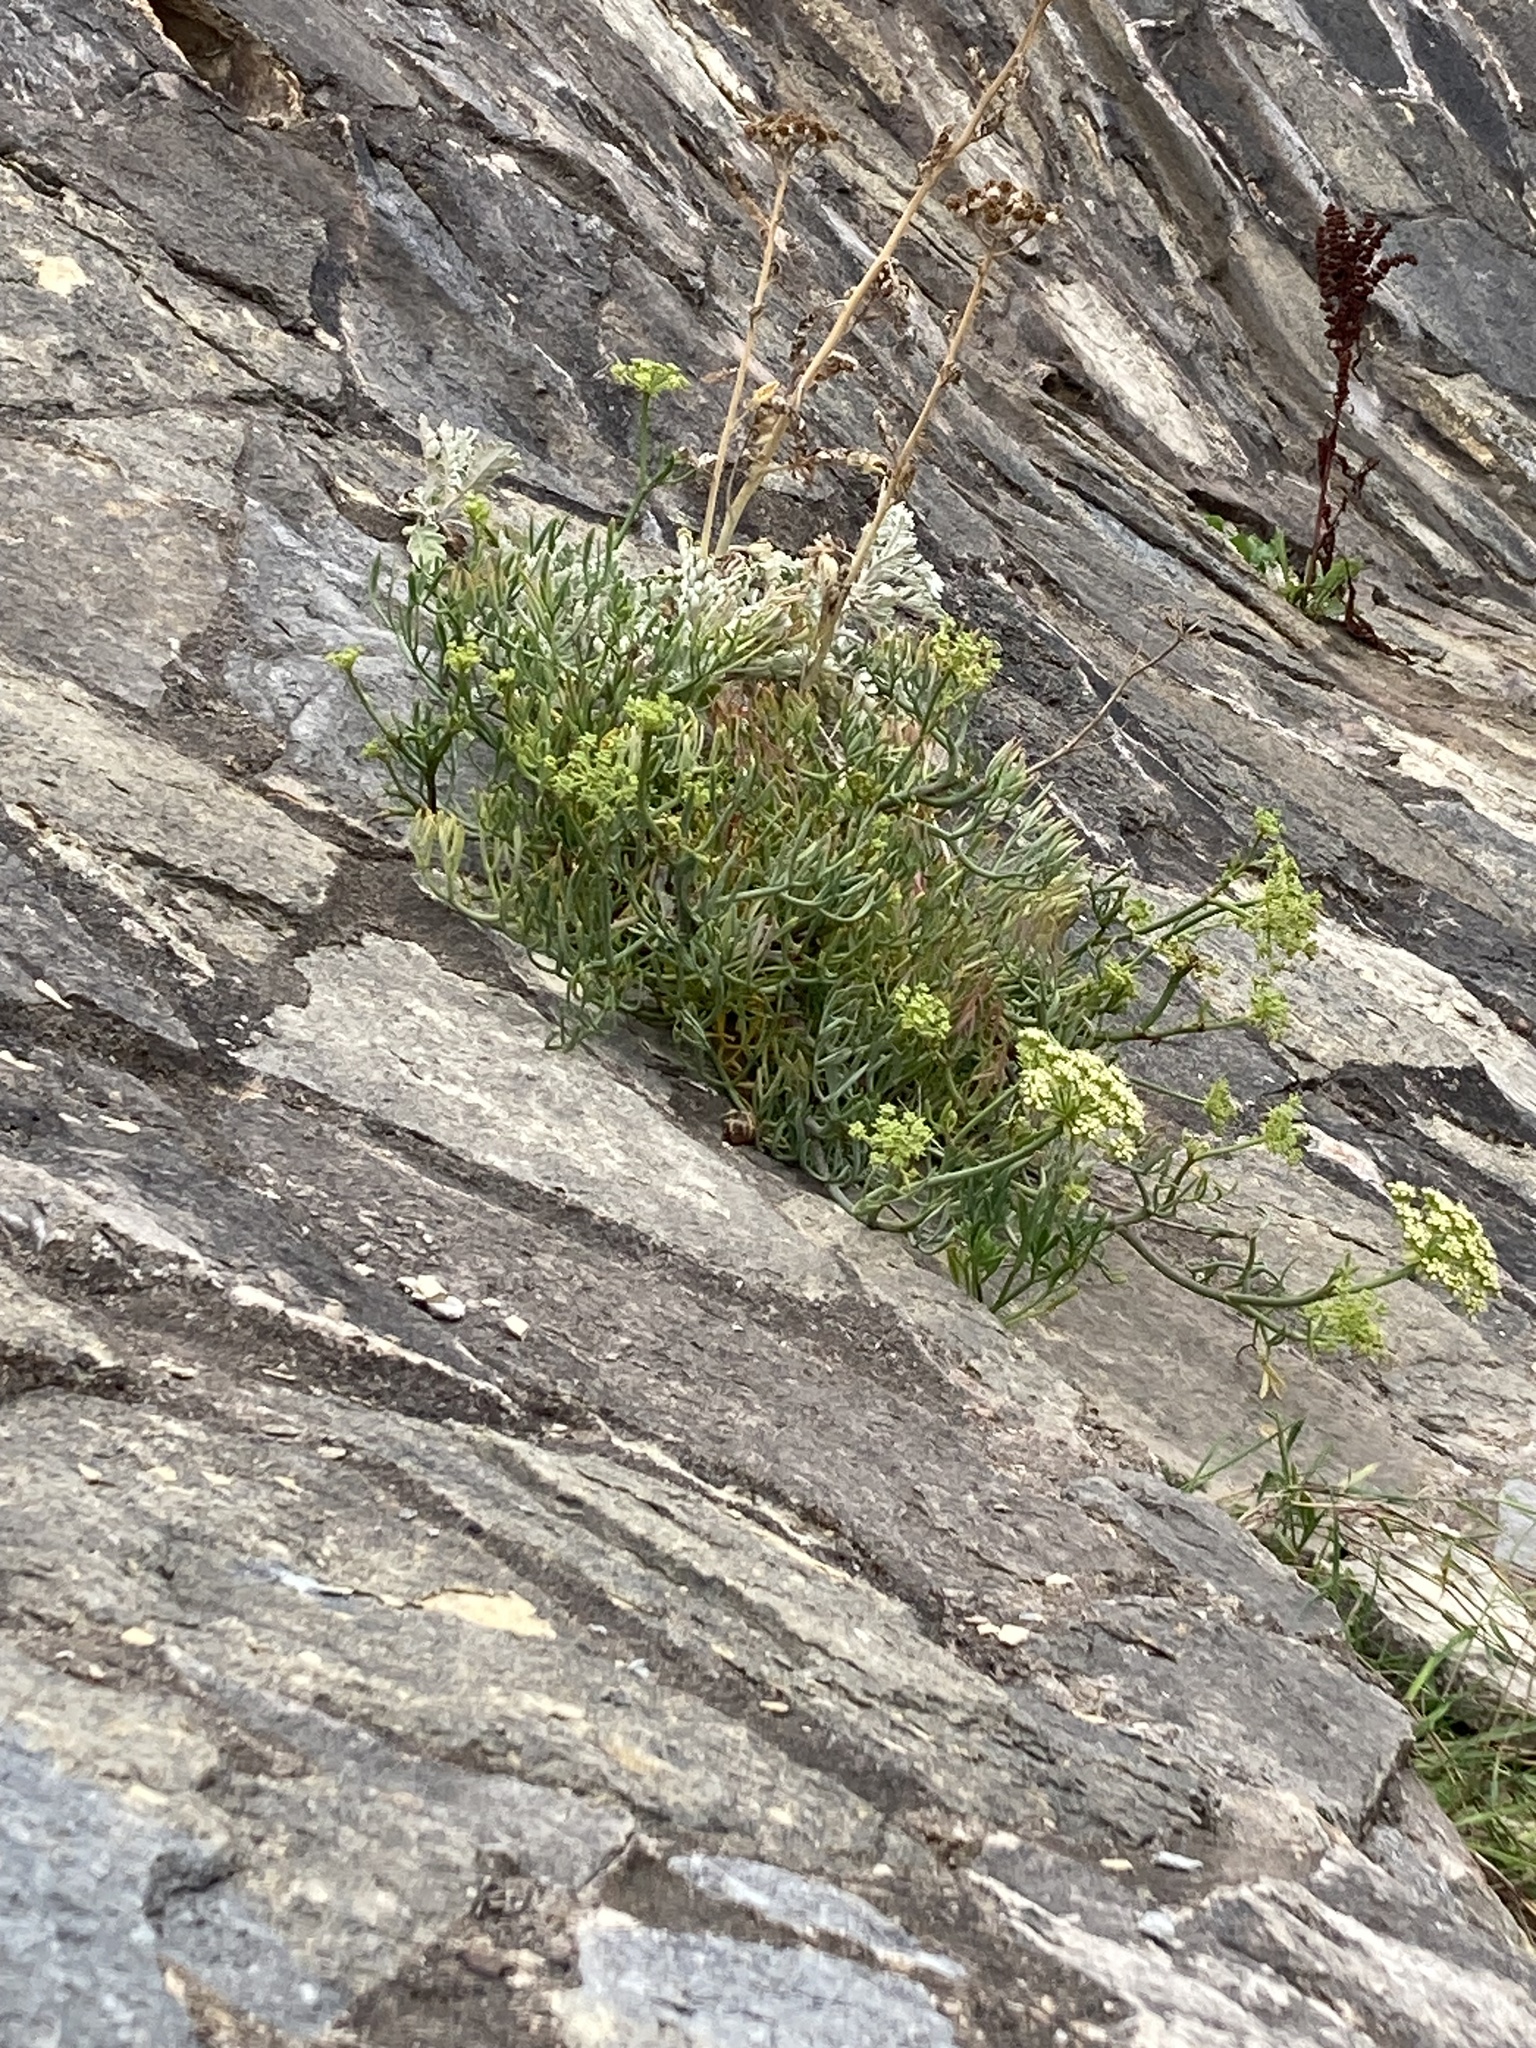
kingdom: Plantae
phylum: Tracheophyta
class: Magnoliopsida
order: Apiales
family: Apiaceae
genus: Crithmum
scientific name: Crithmum maritimum
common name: Rock samphire
